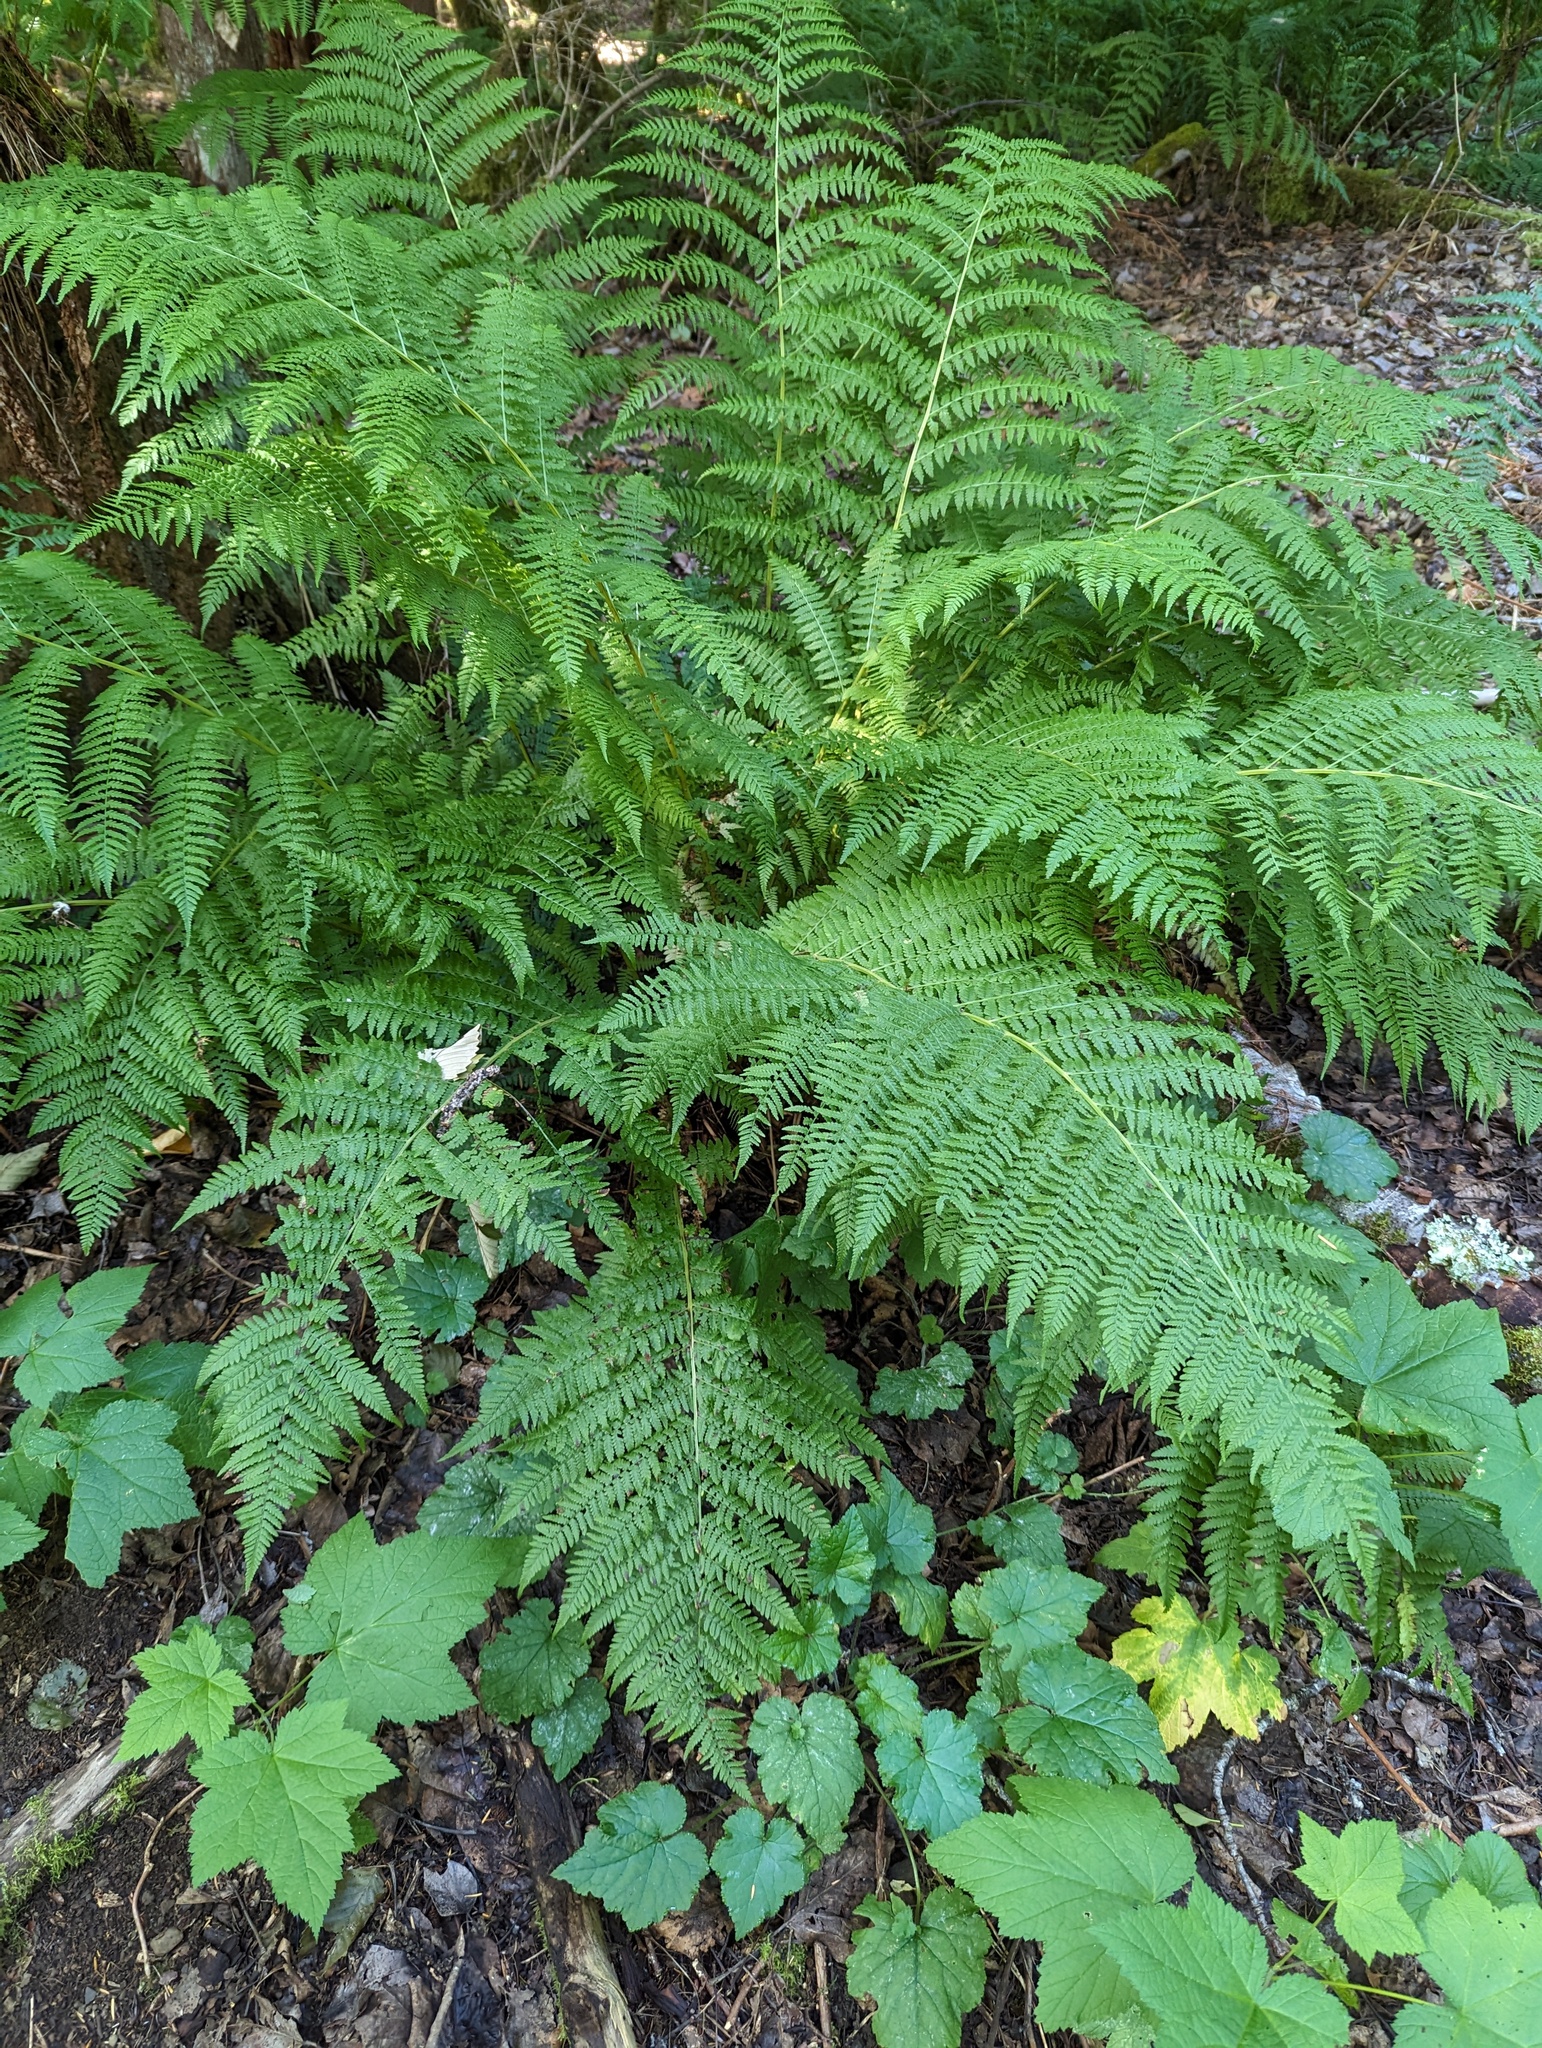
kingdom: Plantae
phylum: Tracheophyta
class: Polypodiopsida
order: Polypodiales
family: Athyriaceae
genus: Athyrium
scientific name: Athyrium cyclosorum
